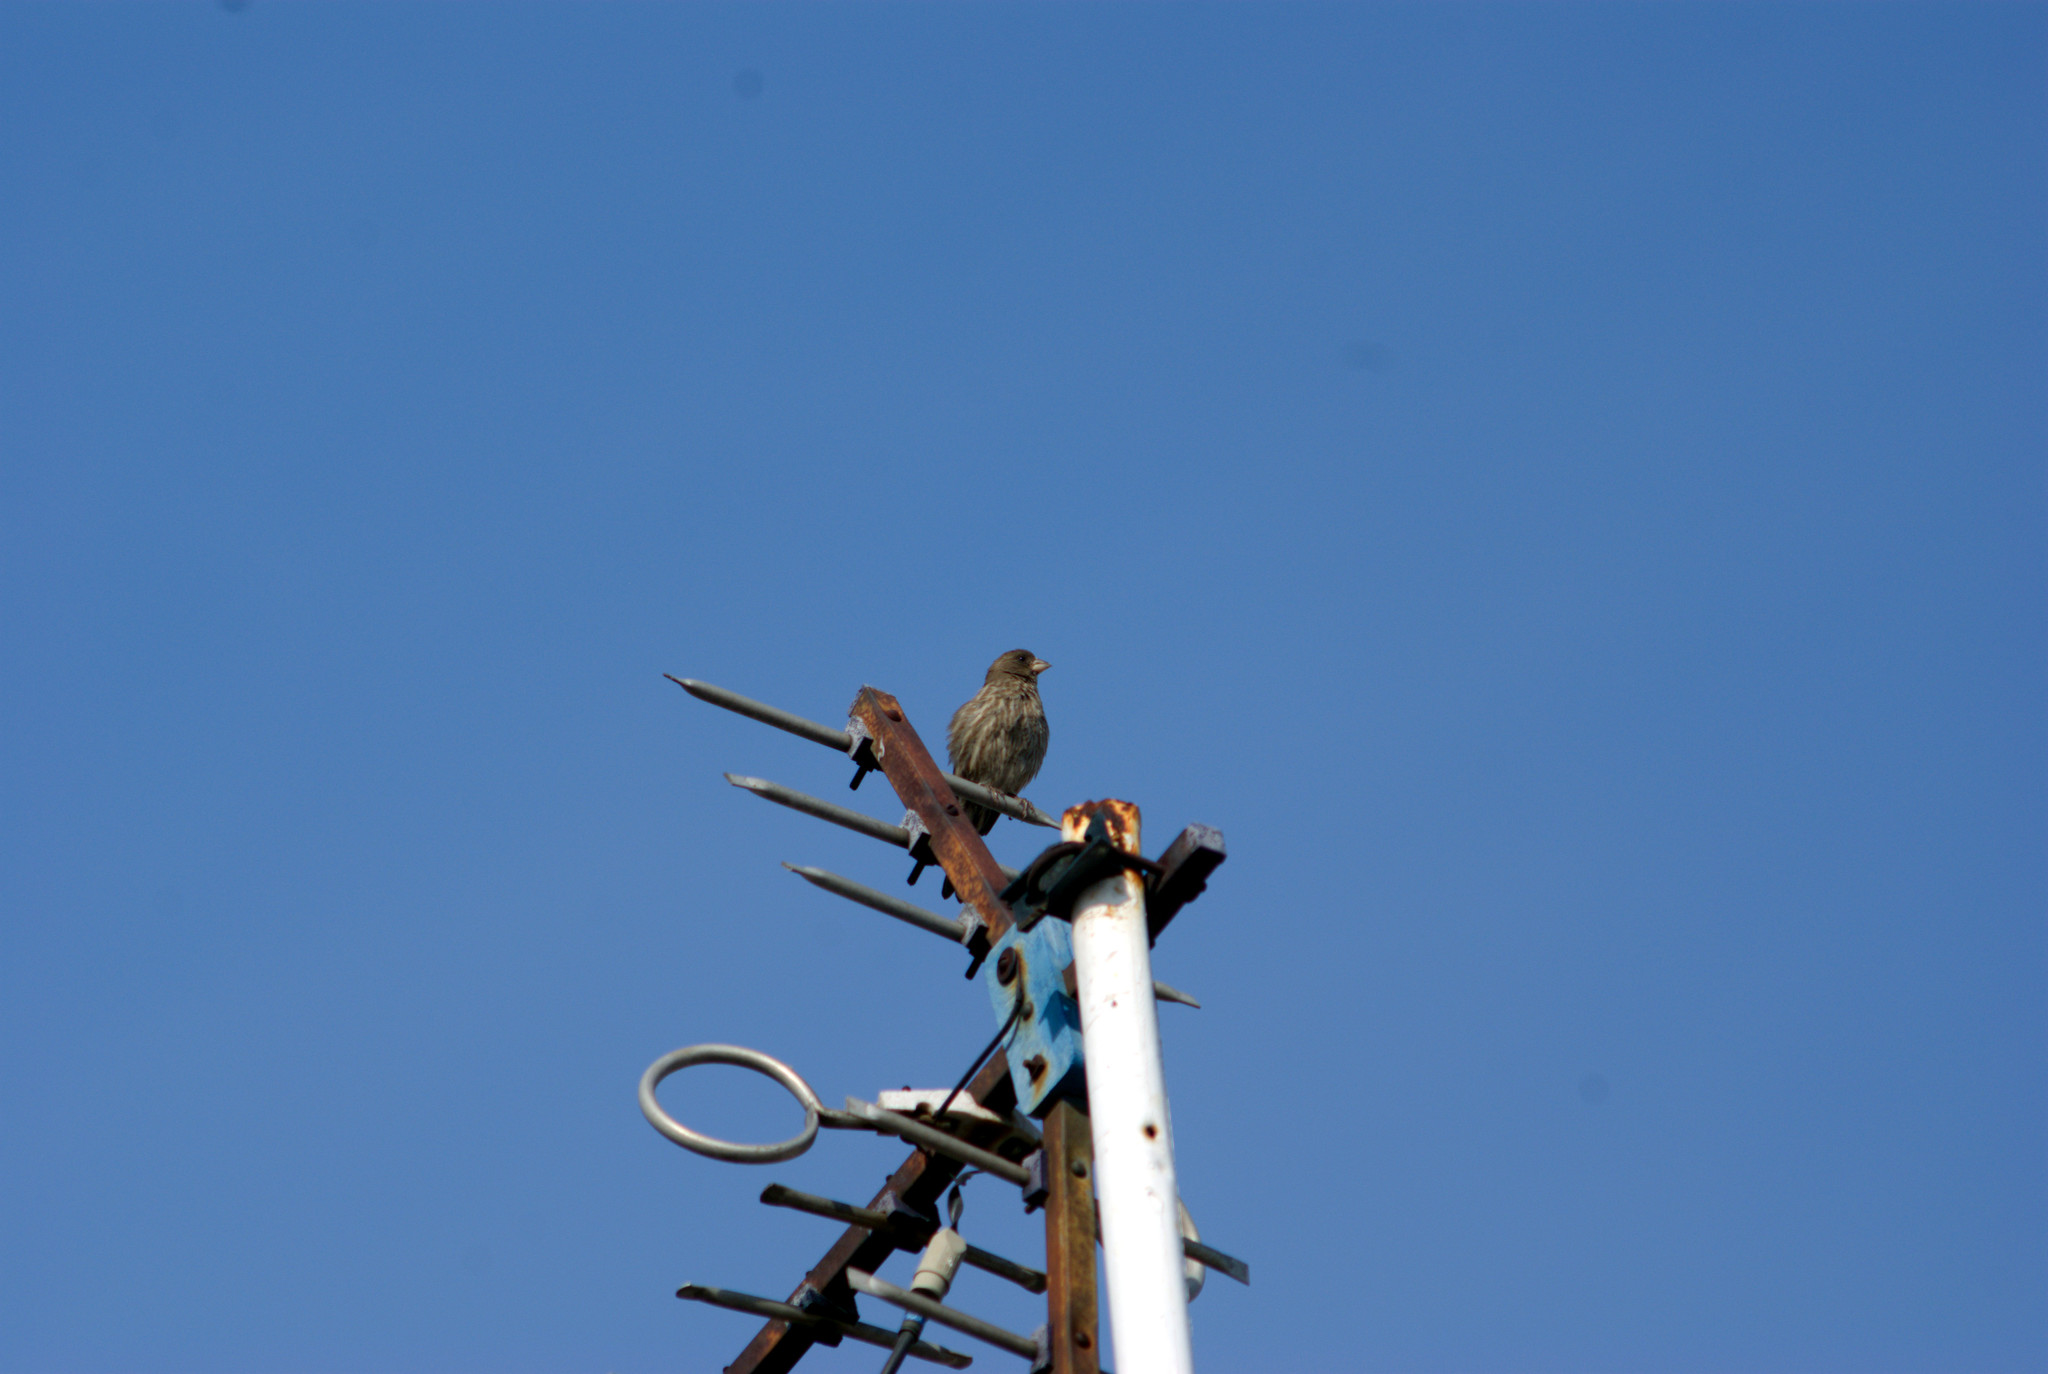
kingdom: Animalia
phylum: Chordata
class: Aves
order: Passeriformes
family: Fringillidae
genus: Haemorhous
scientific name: Haemorhous mexicanus
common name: House finch
